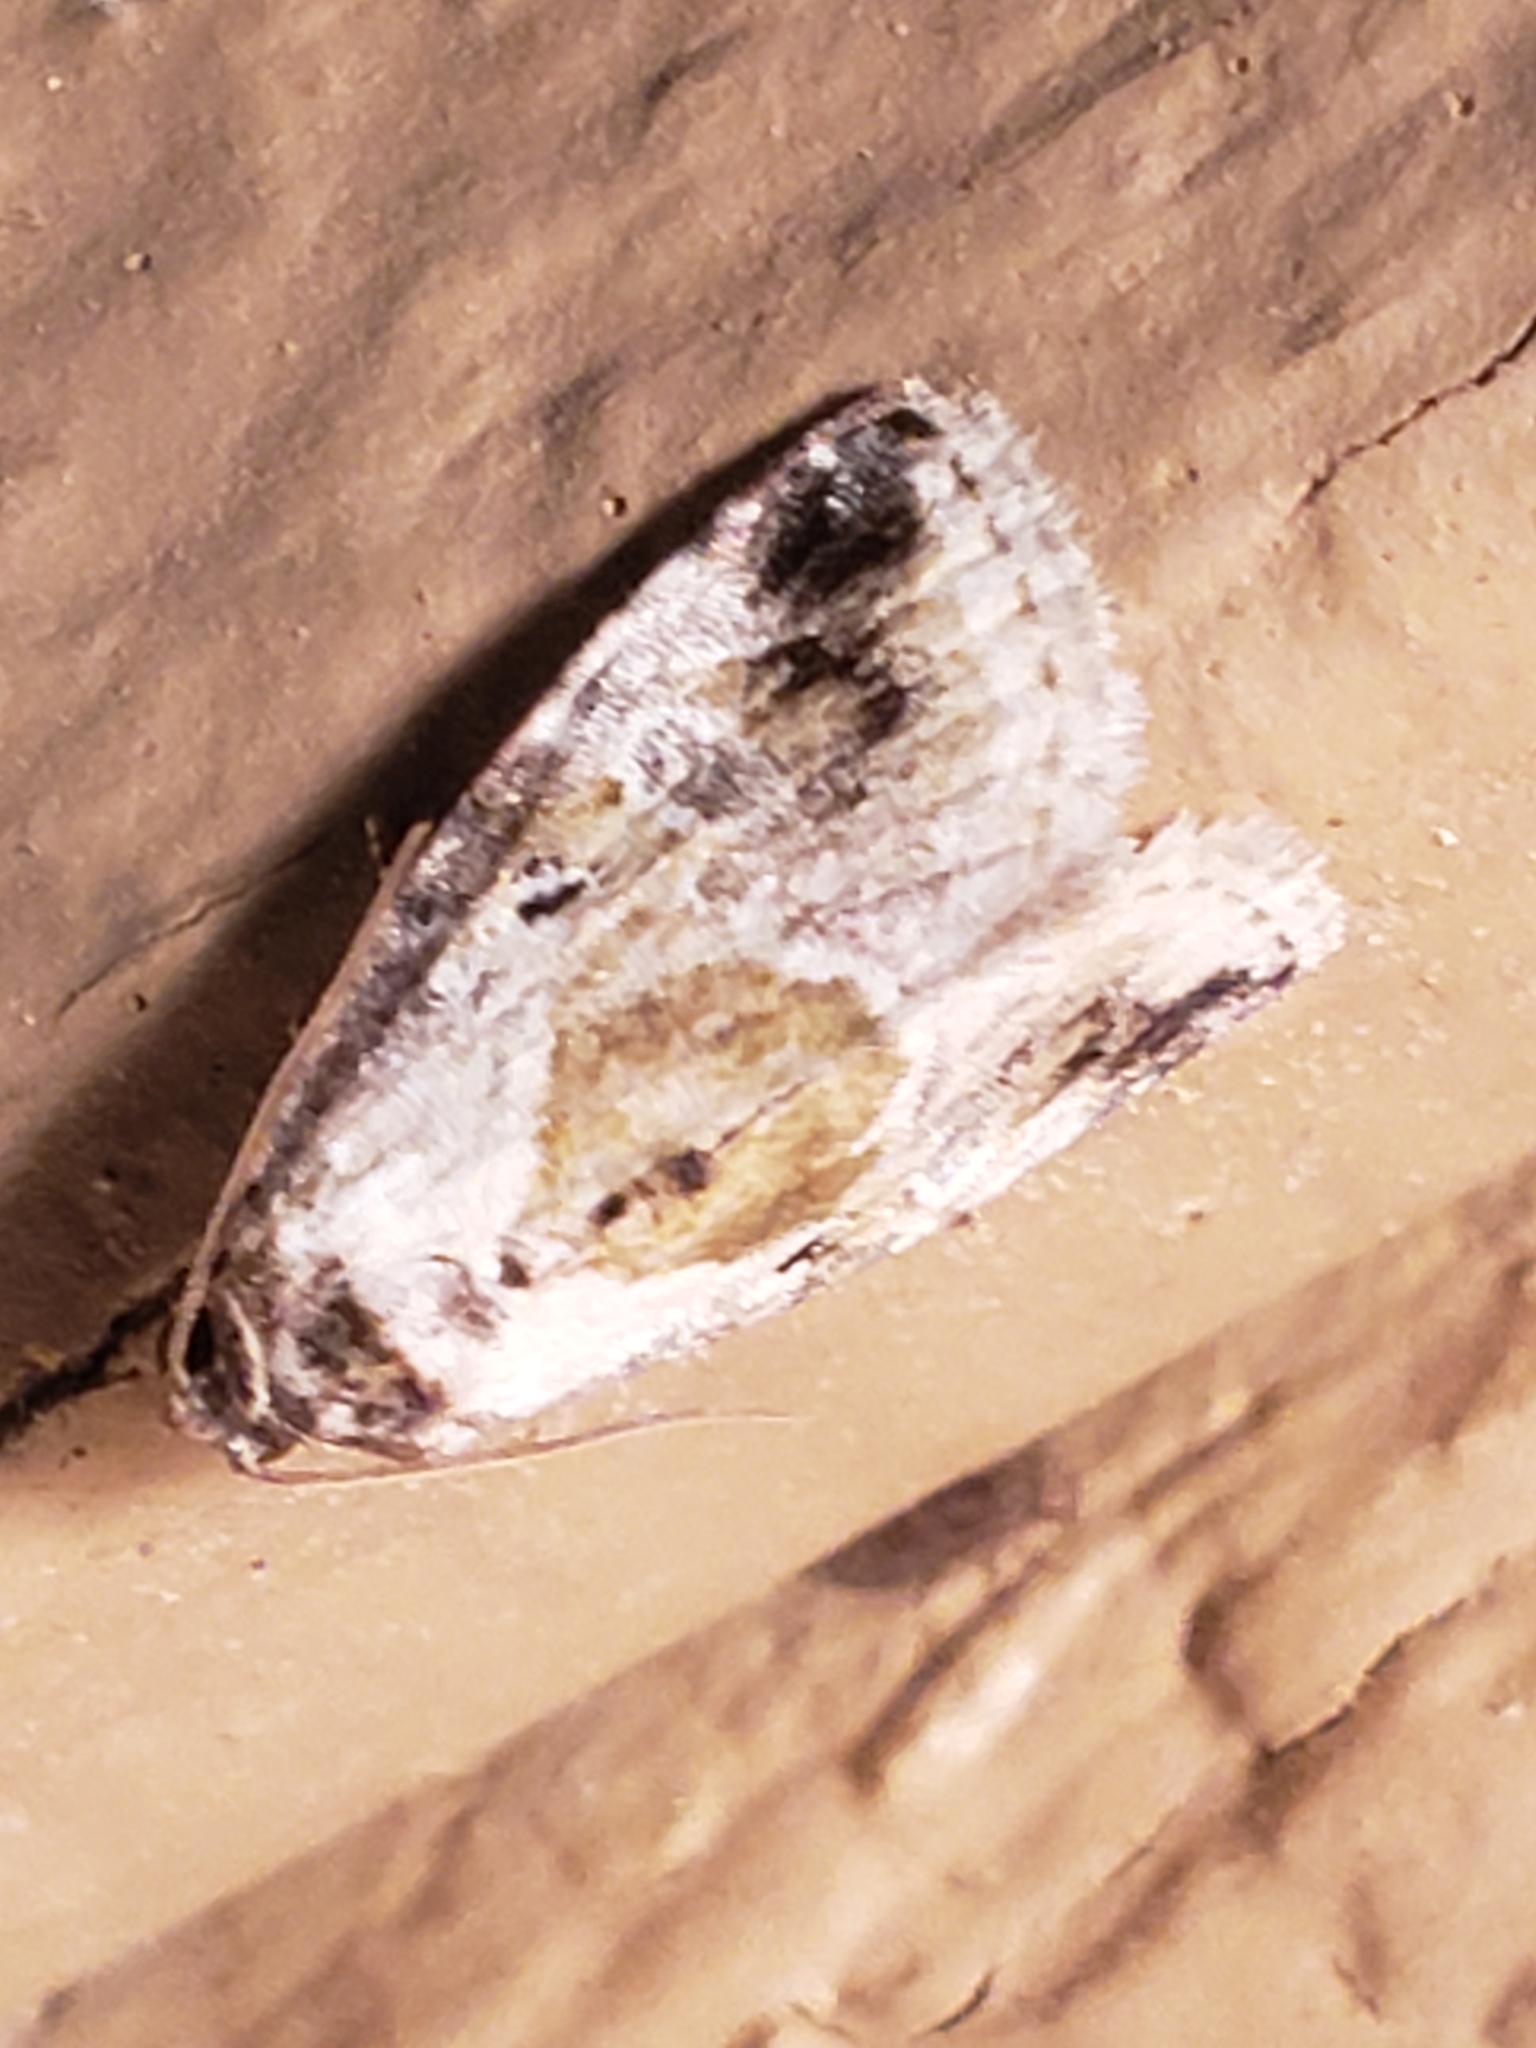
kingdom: Animalia
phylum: Arthropoda
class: Insecta
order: Lepidoptera
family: Noctuidae
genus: Maliattha
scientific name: Maliattha synochitis
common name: Black-dotted glyph
